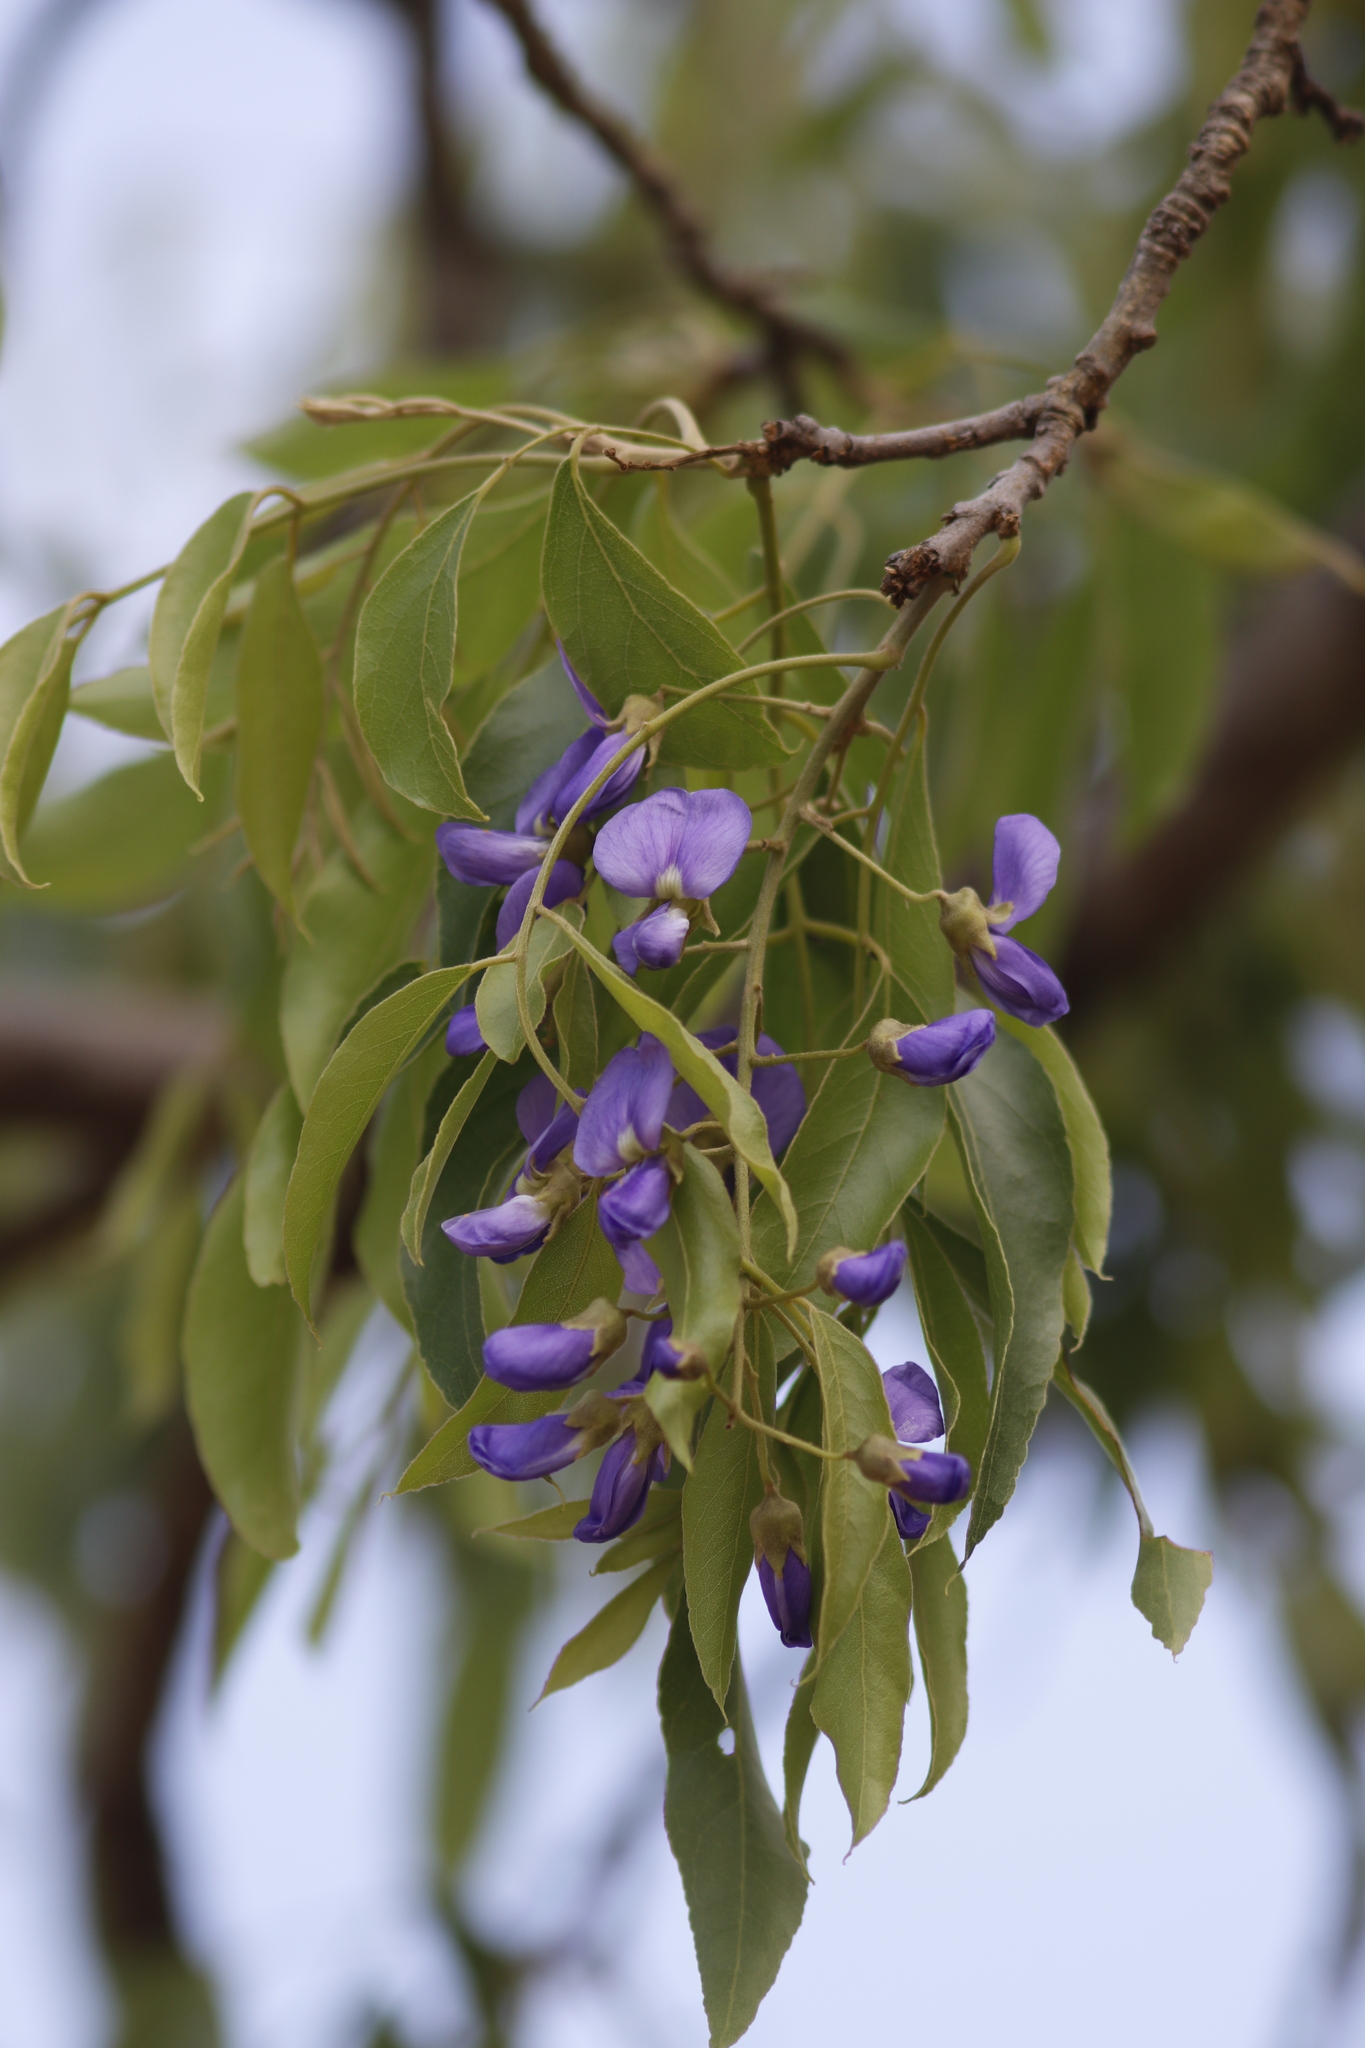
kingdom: Plantae
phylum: Tracheophyta
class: Magnoliopsida
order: Fabales
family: Fabaceae
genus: Bolusanthus
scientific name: Bolusanthus speciosus
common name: Tree wisteria
